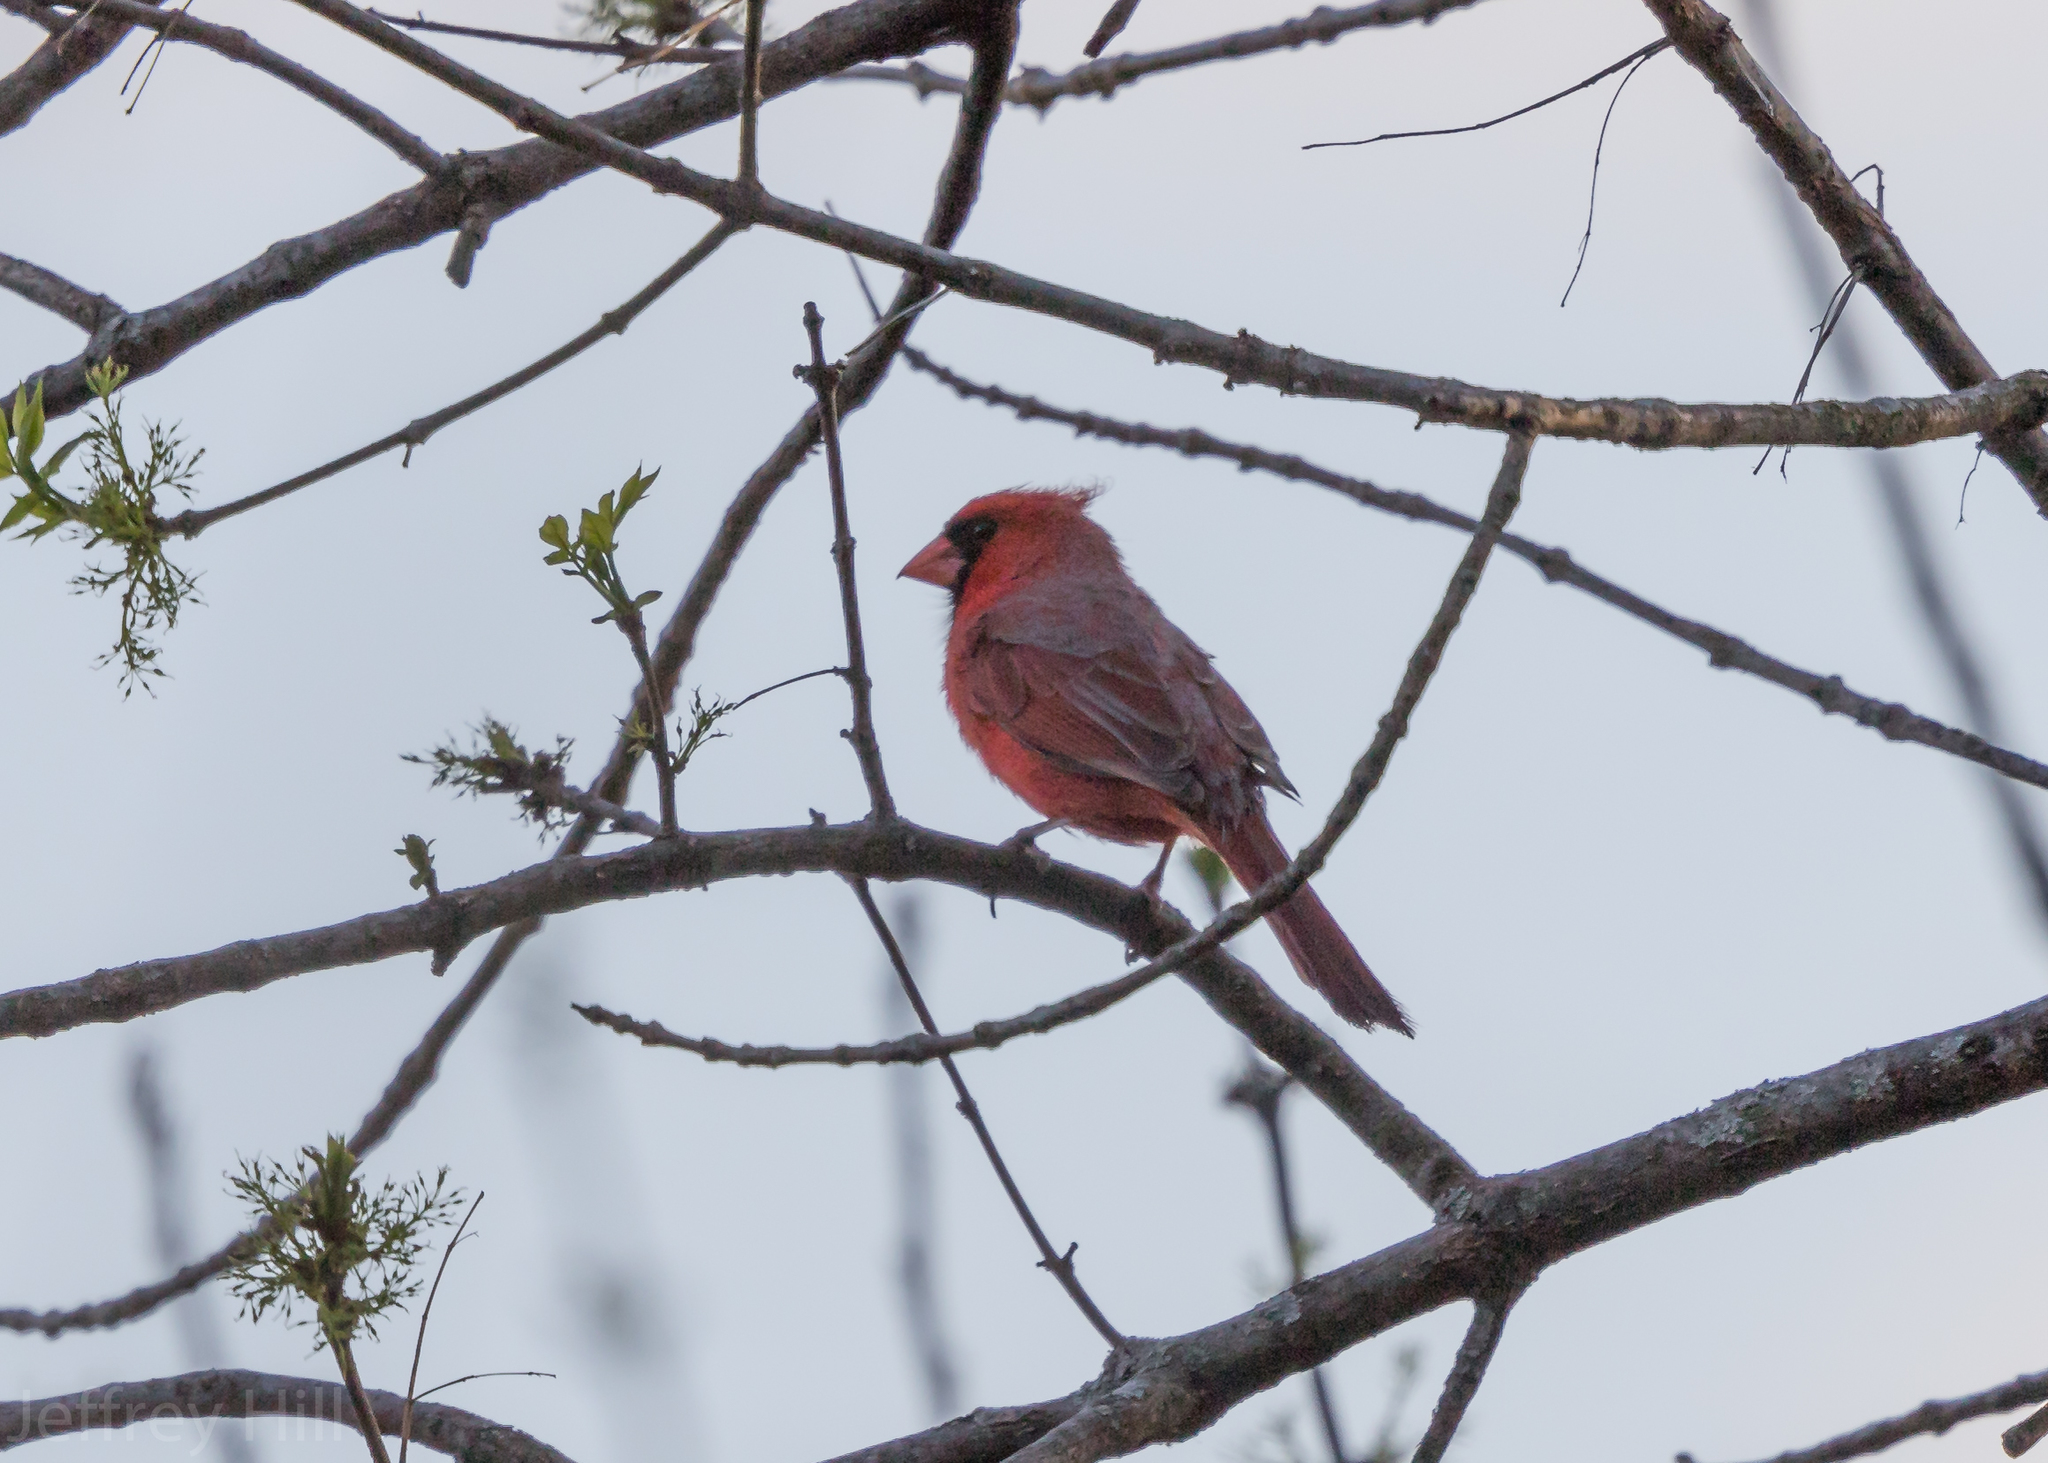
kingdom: Animalia
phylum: Chordata
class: Aves
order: Passeriformes
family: Cardinalidae
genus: Cardinalis
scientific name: Cardinalis cardinalis
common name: Northern cardinal
